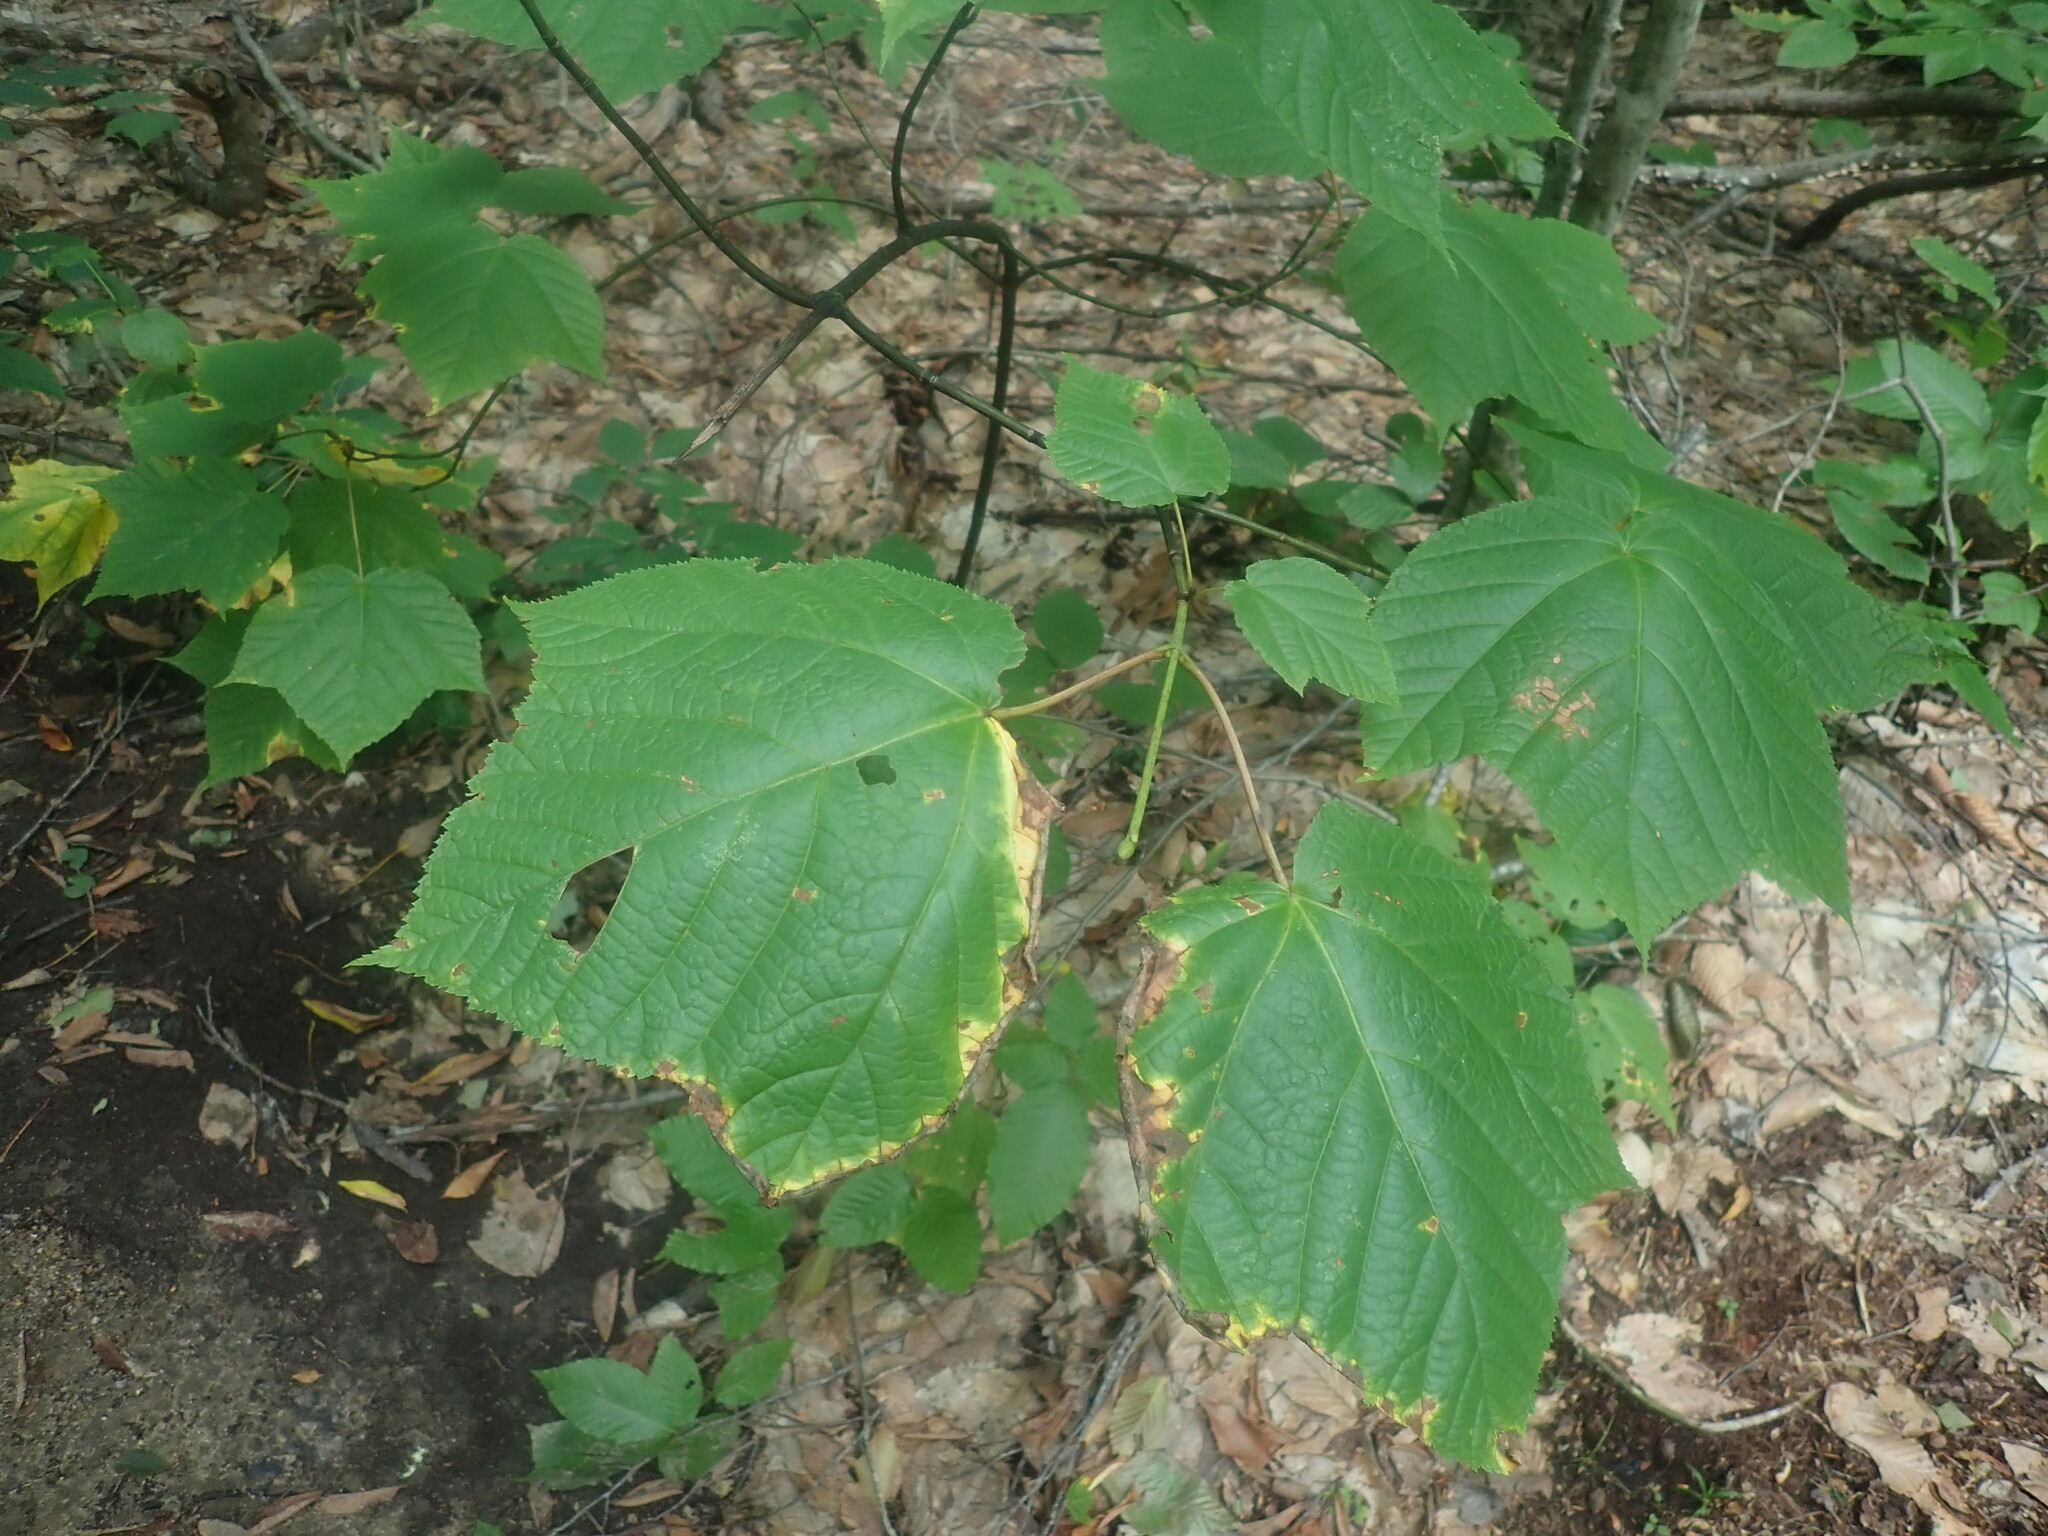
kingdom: Plantae
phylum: Tracheophyta
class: Magnoliopsida
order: Sapindales
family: Sapindaceae
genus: Acer
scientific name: Acer pensylvanicum
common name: Moosewood
